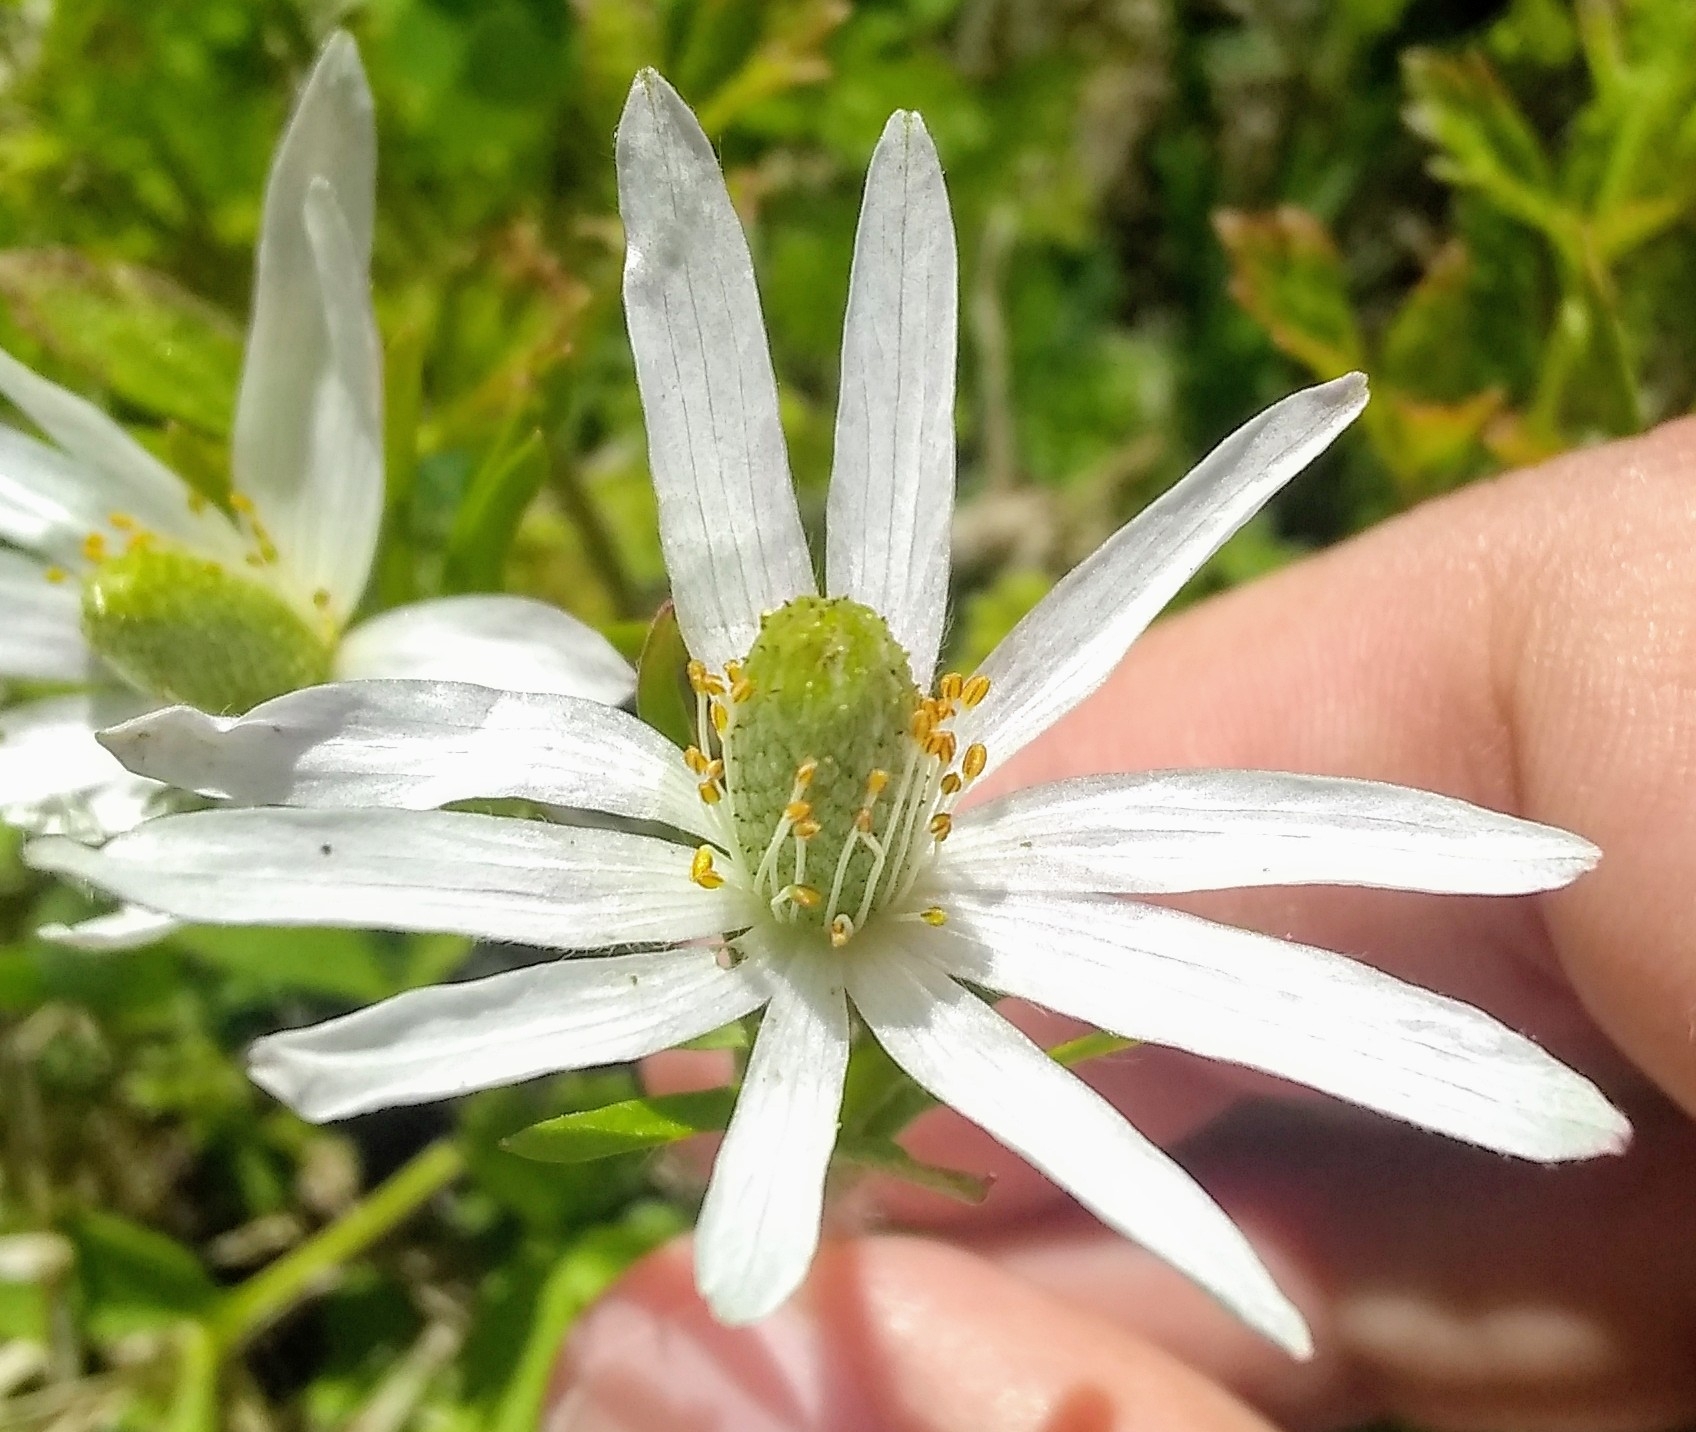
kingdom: Plantae
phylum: Tracheophyta
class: Magnoliopsida
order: Ranunculales
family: Ranunculaceae
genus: Anemone
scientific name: Anemone berlandieri
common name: Ten-petal anemone
